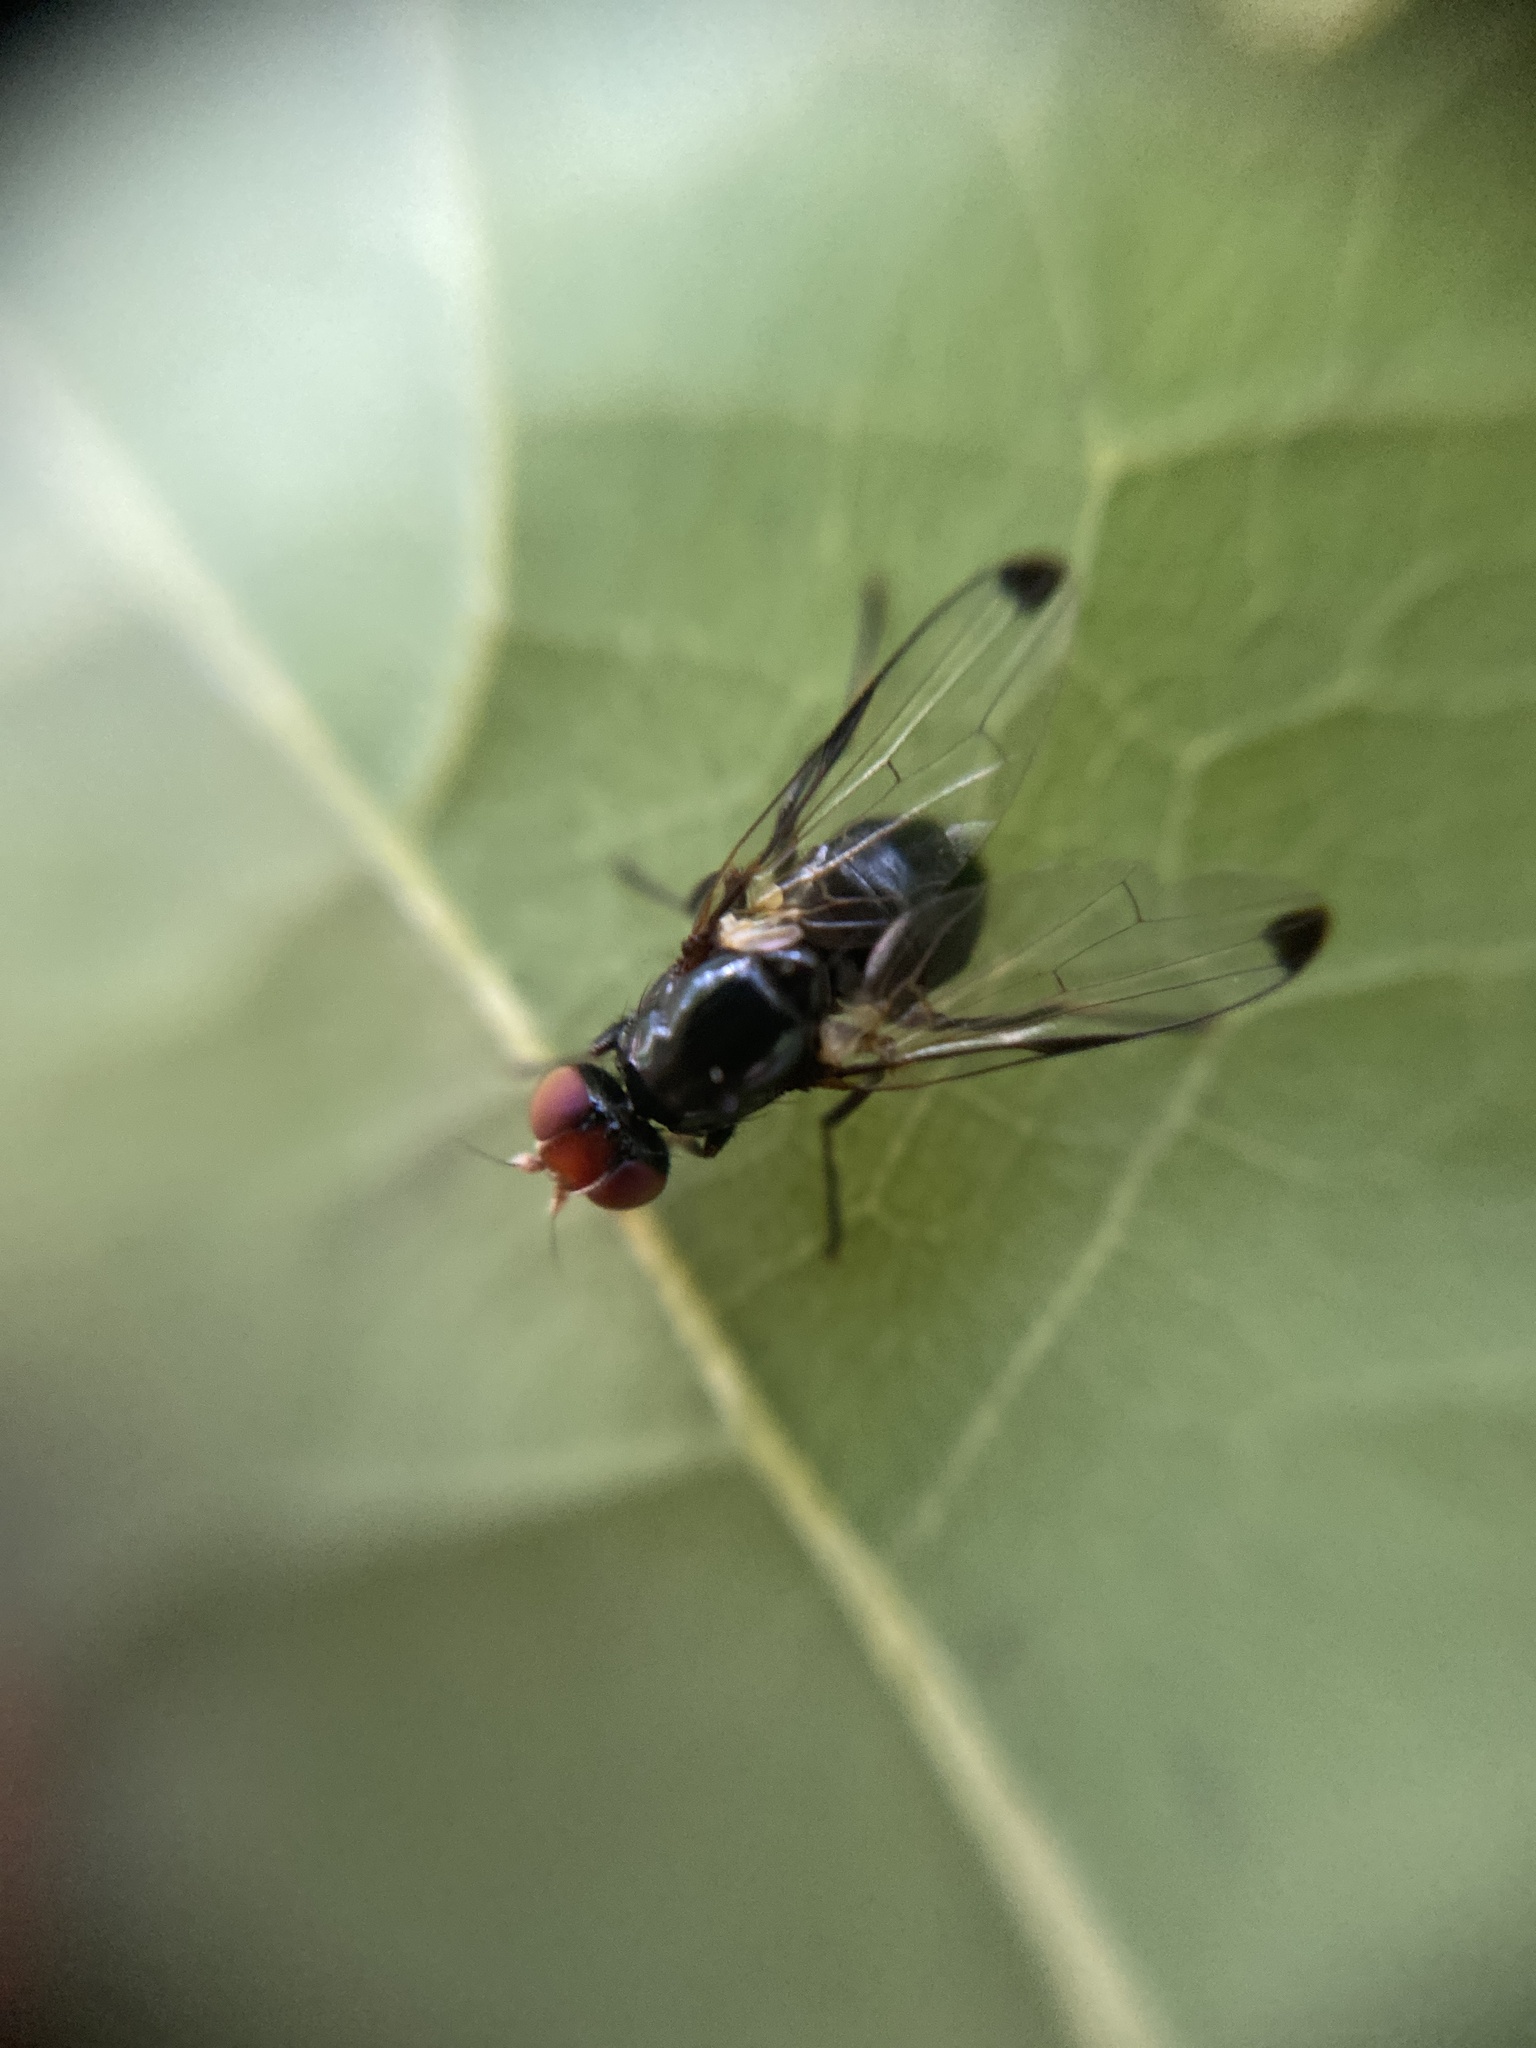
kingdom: Animalia
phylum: Arthropoda
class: Insecta
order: Diptera
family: Ulidiidae
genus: Seioptera
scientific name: Seioptera vibrans
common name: Dark-tipped wingwaver
